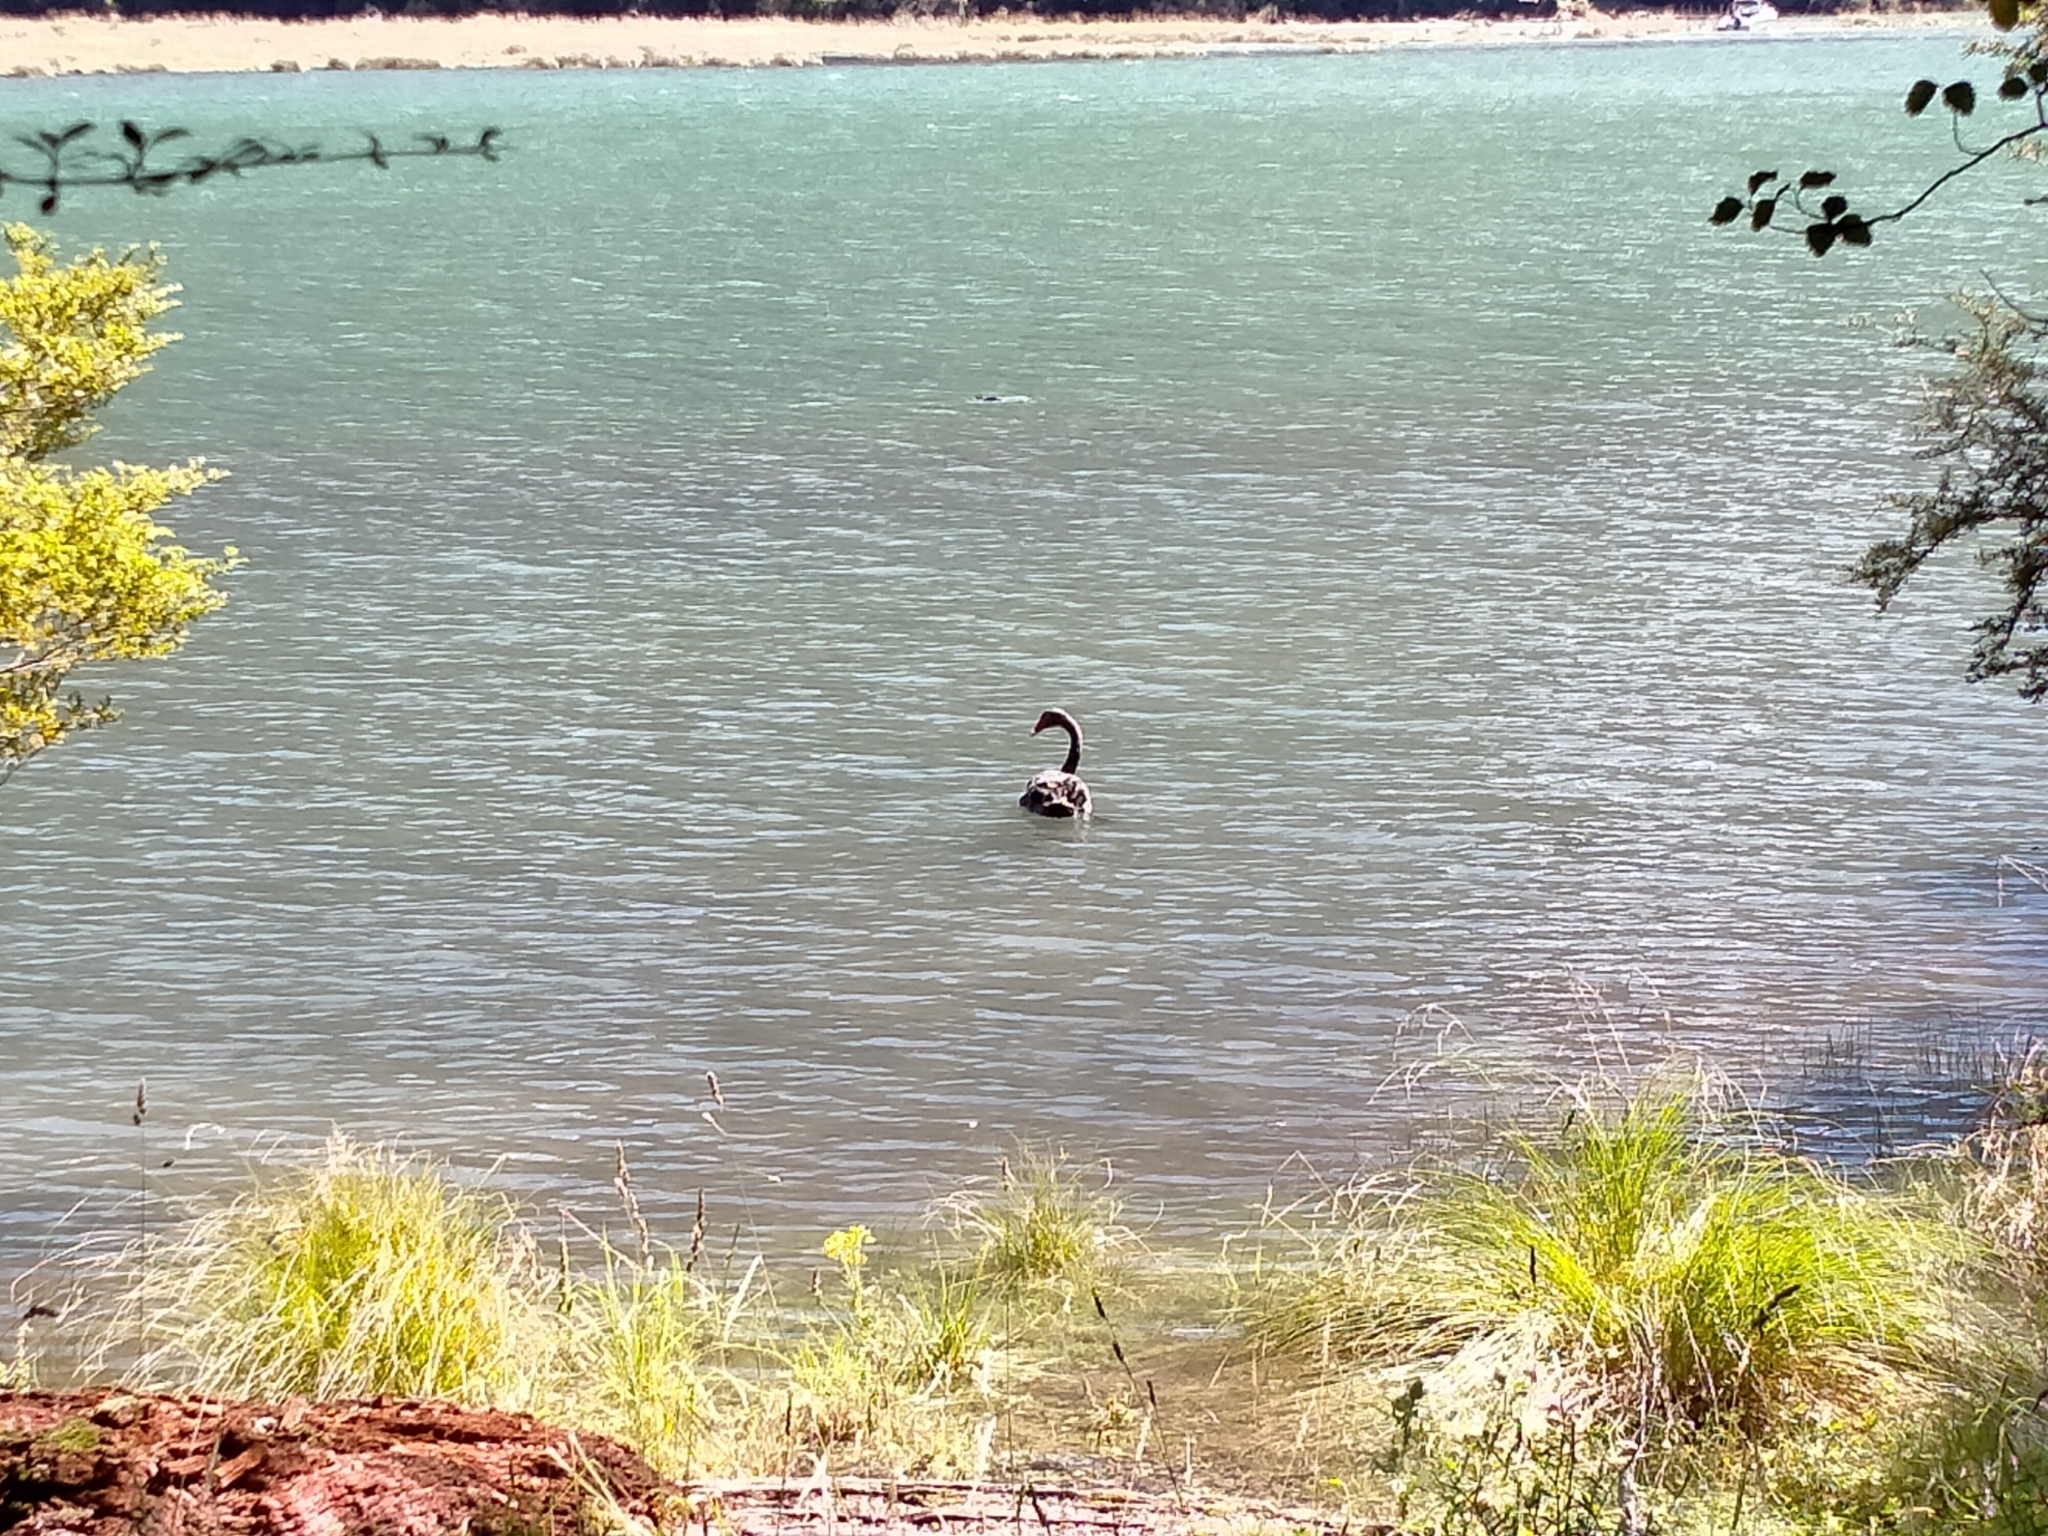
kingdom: Animalia
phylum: Chordata
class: Aves
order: Anseriformes
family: Anatidae
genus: Cygnus
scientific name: Cygnus atratus
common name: Black swan
